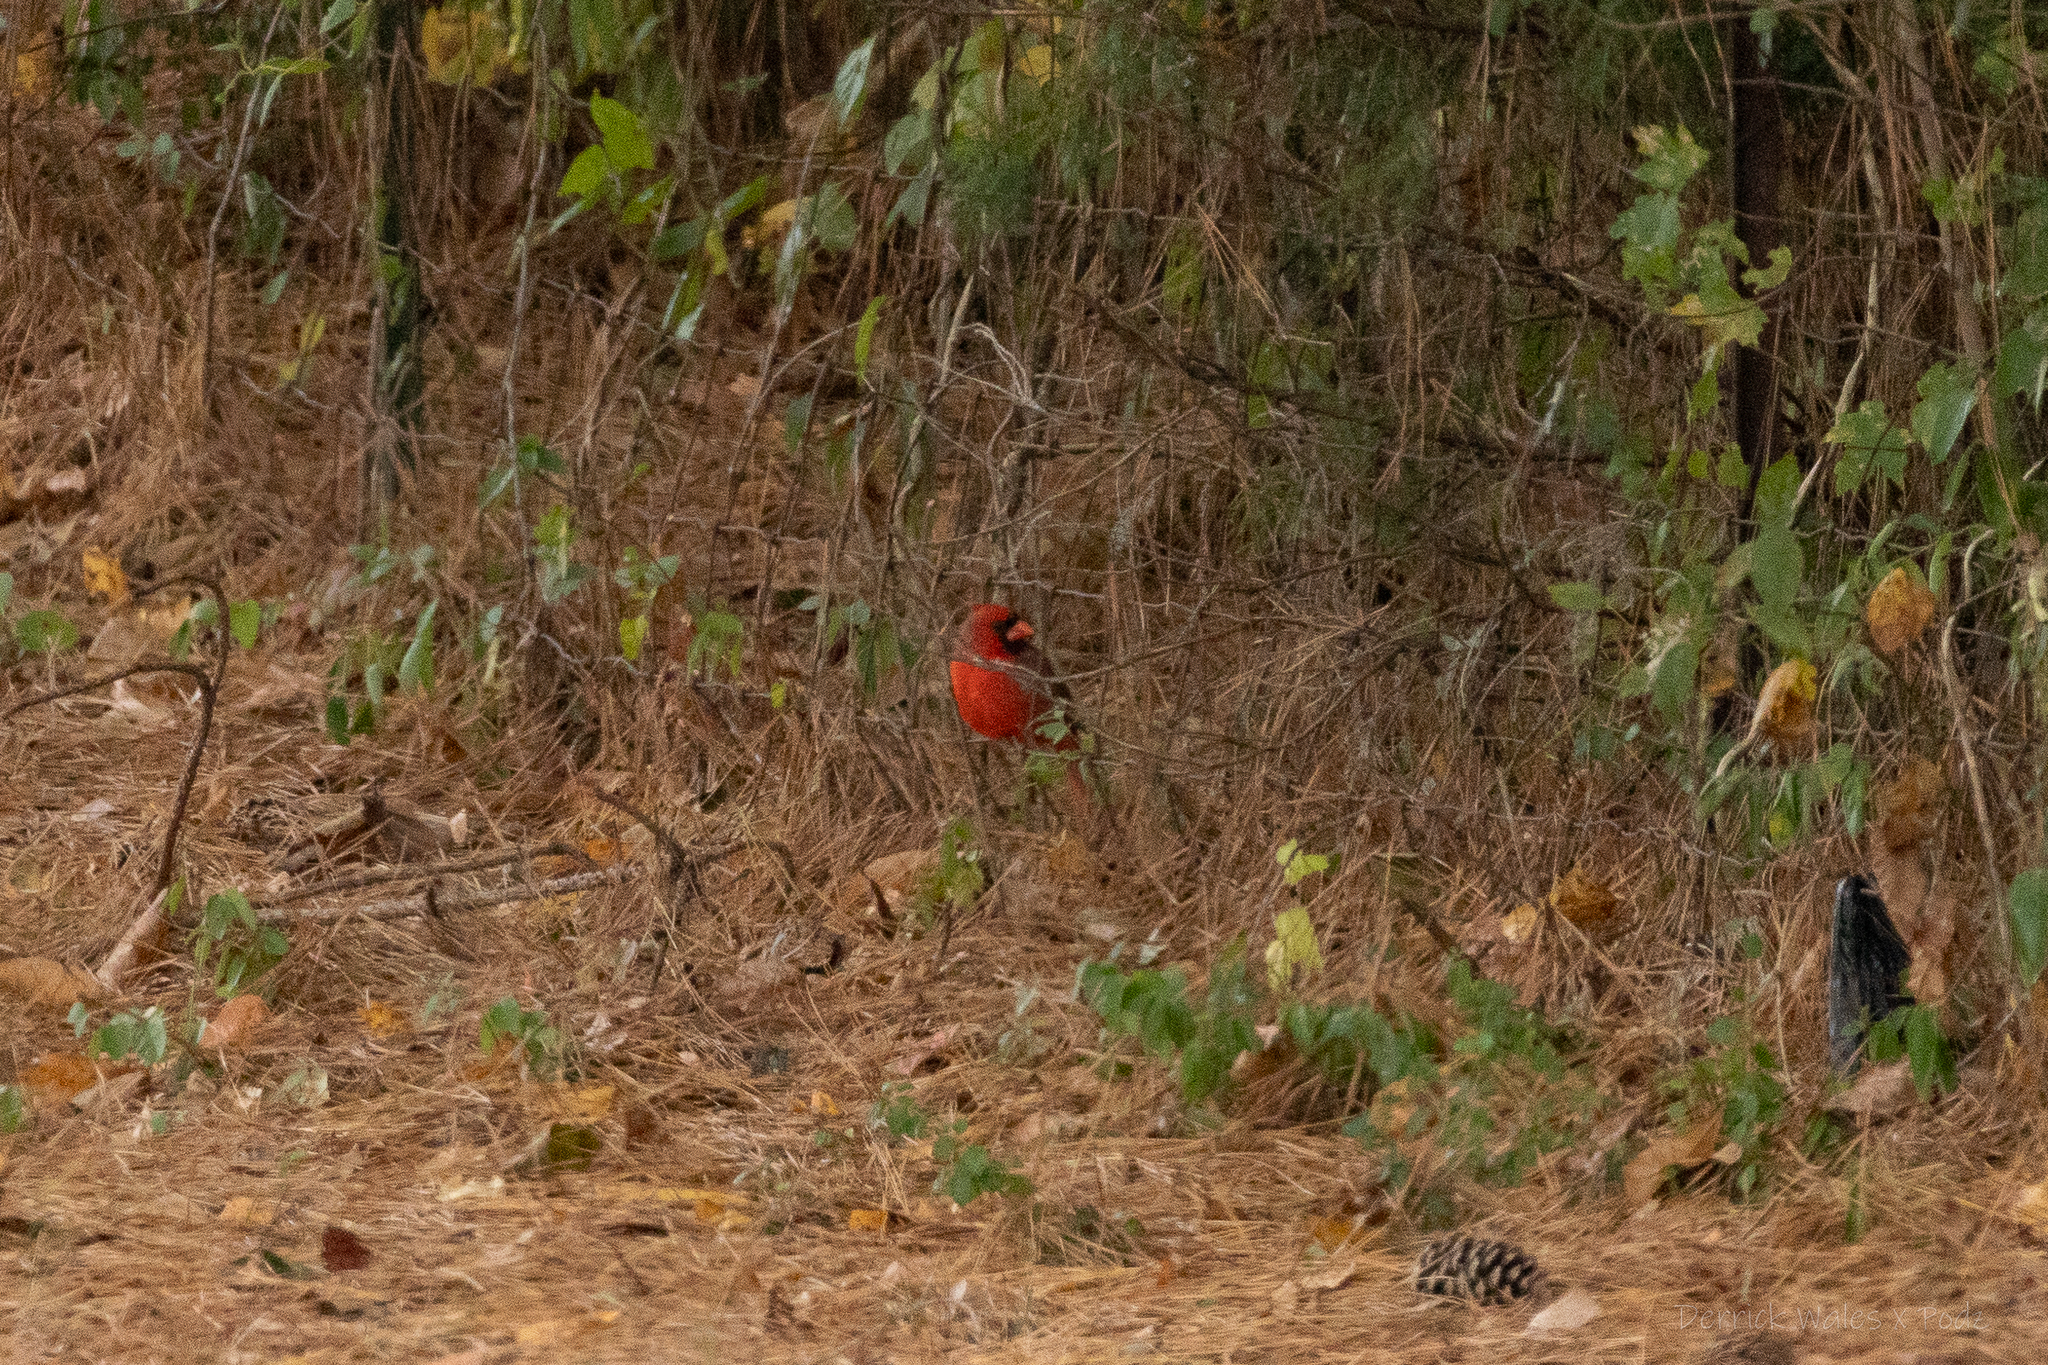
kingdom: Animalia
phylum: Chordata
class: Aves
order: Passeriformes
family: Cardinalidae
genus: Cardinalis
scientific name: Cardinalis cardinalis
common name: Northern cardinal
